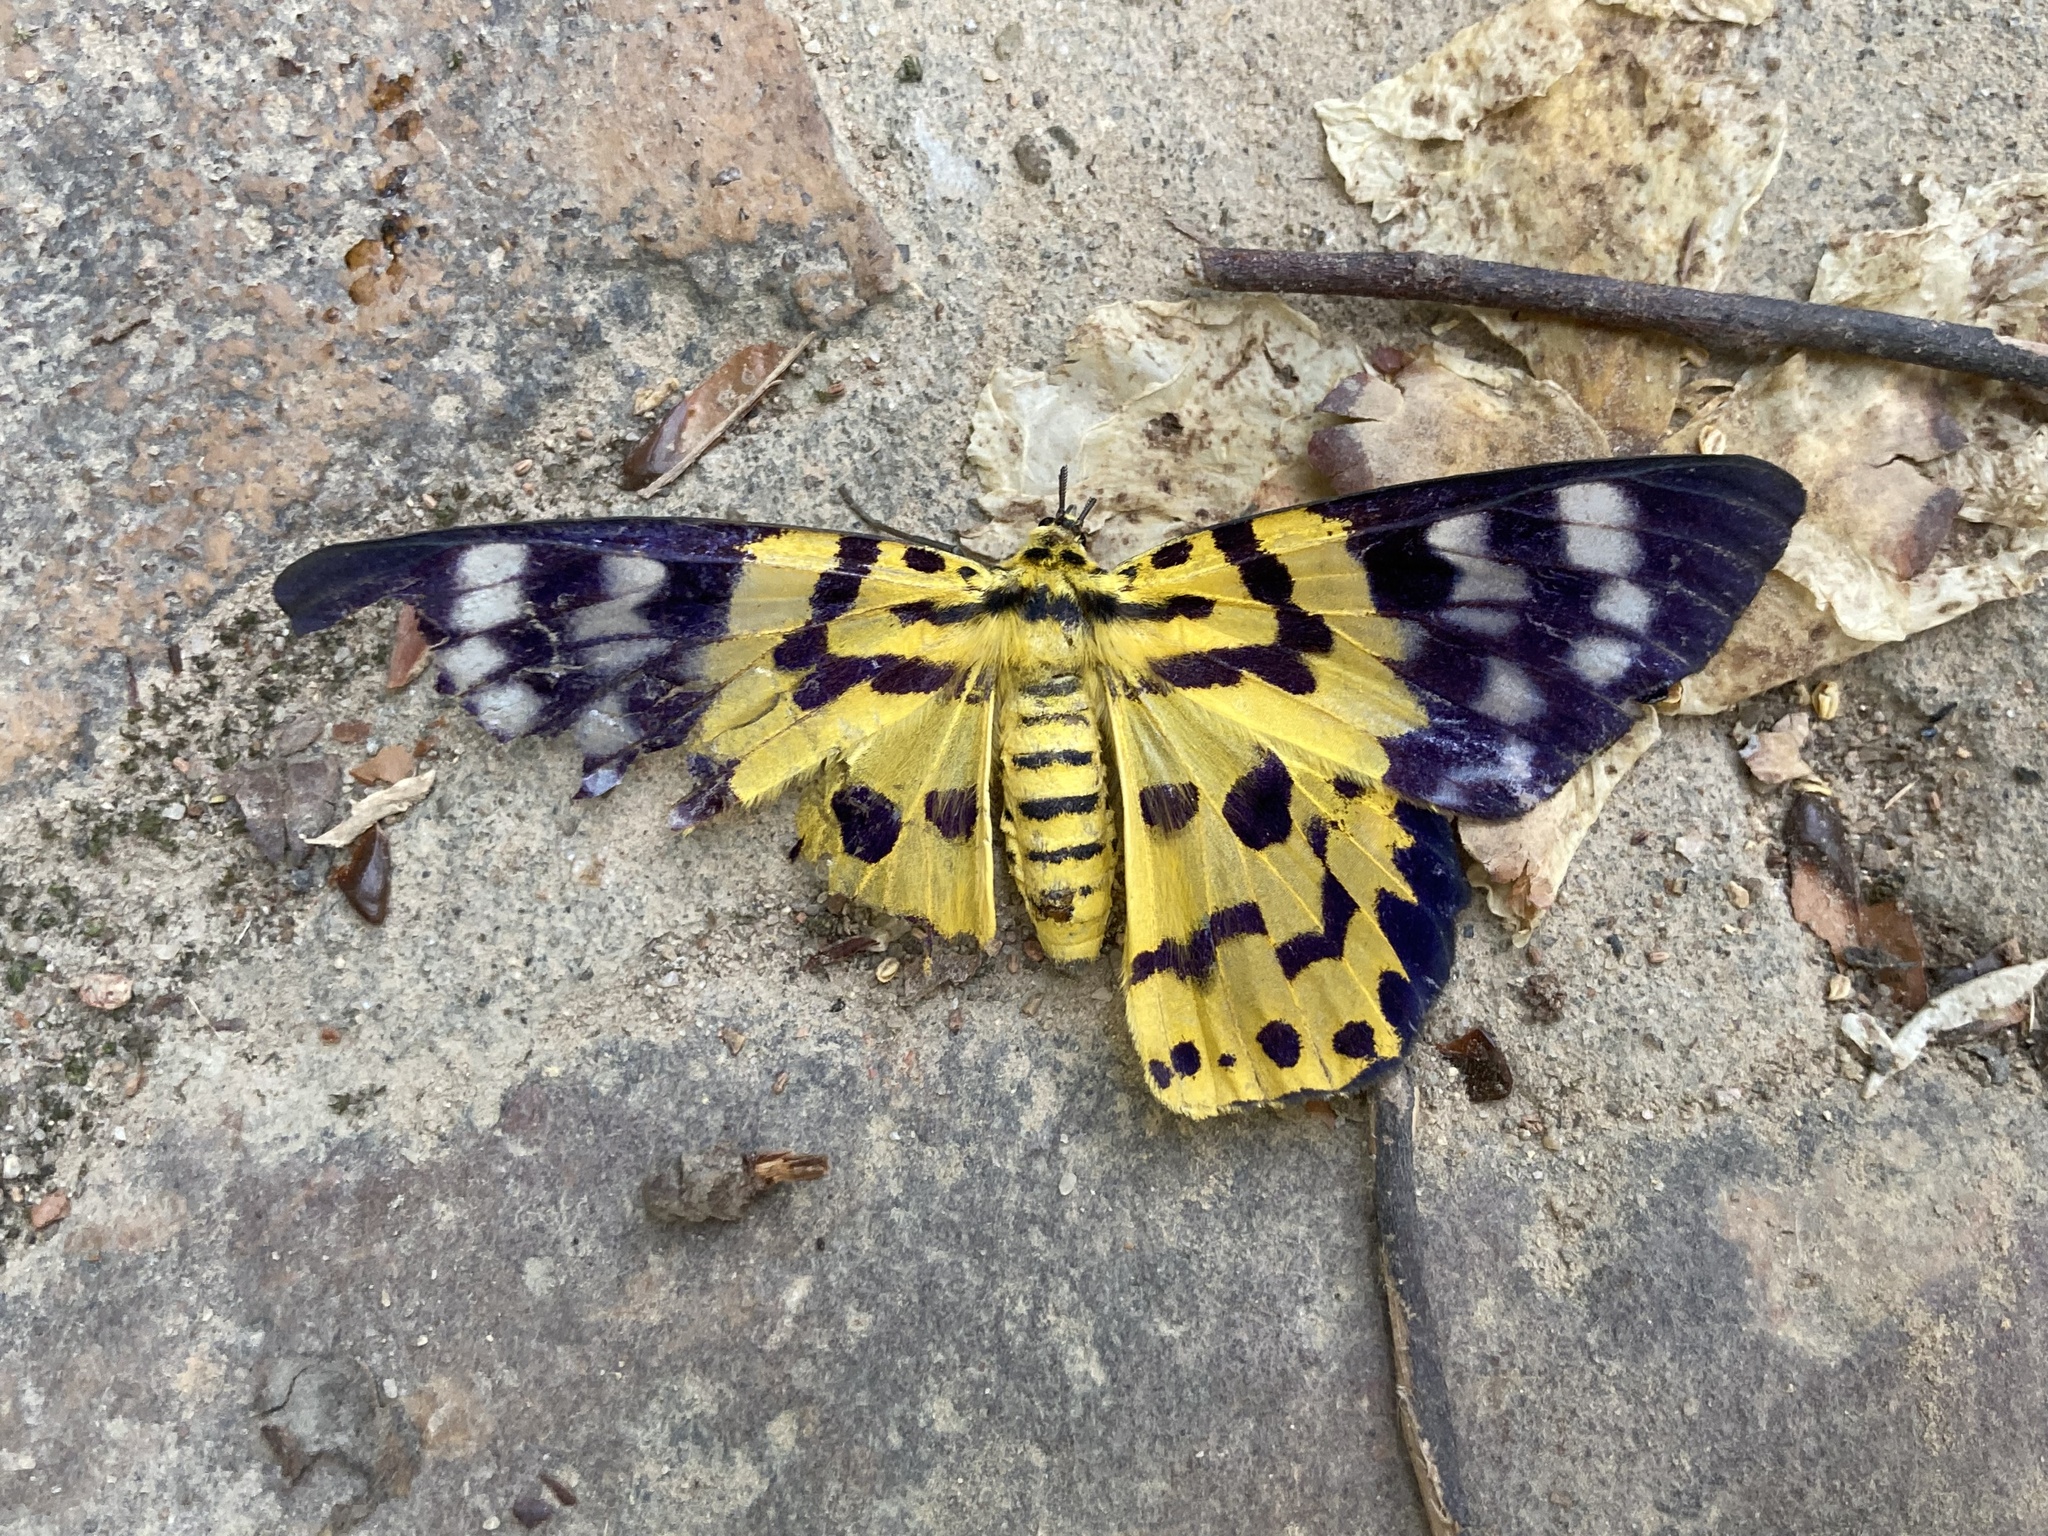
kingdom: Animalia
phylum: Arthropoda
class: Insecta
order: Lepidoptera
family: Geometridae
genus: Dysphania
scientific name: Dysphania militaris
